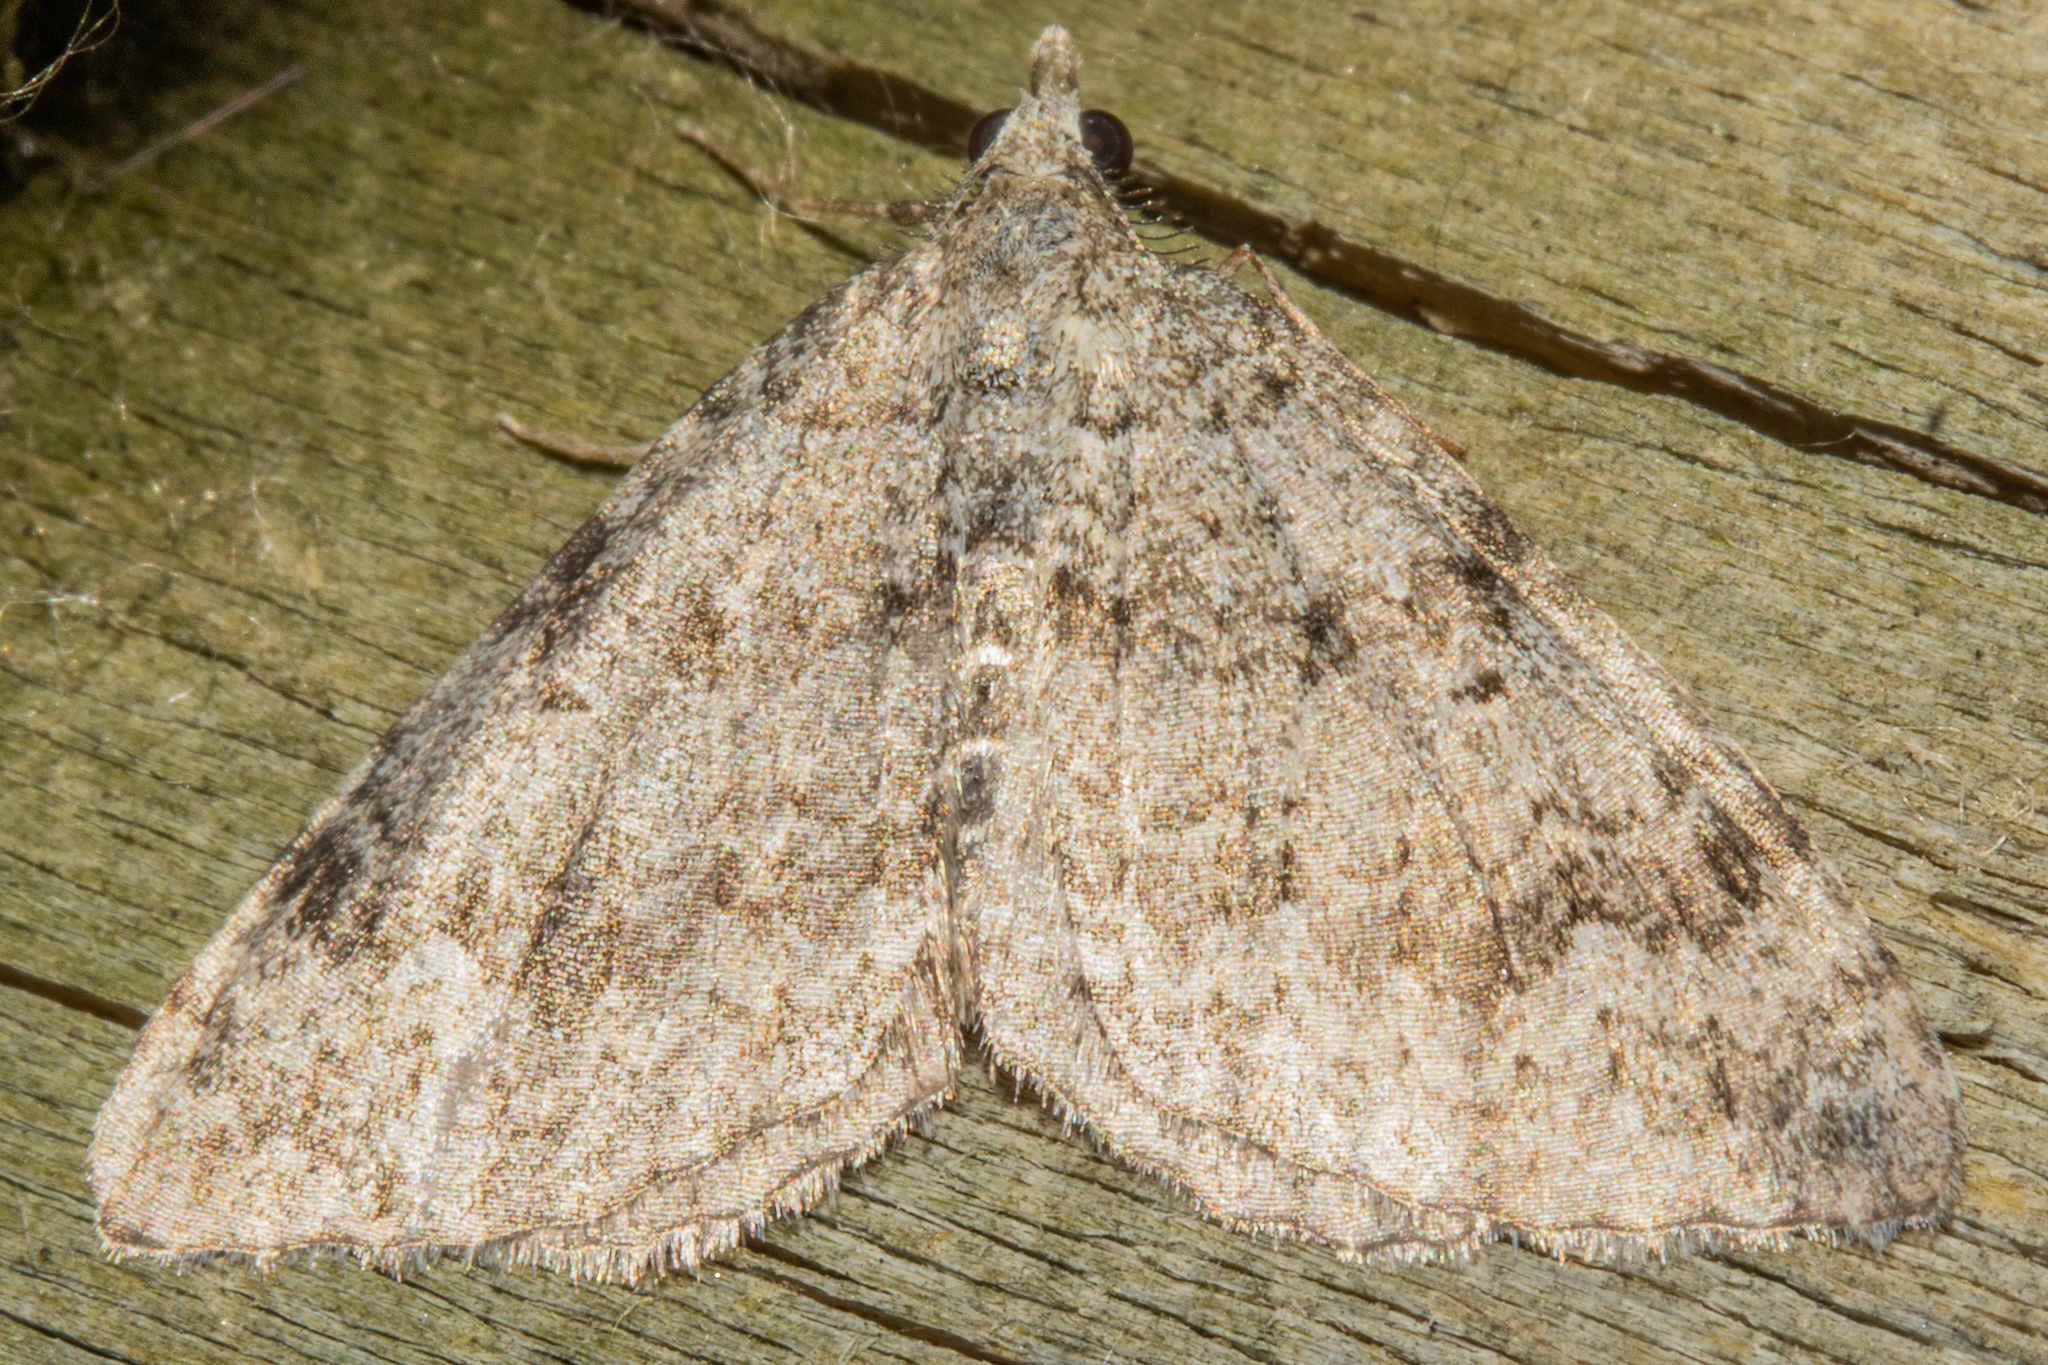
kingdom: Animalia
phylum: Arthropoda
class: Insecta
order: Lepidoptera
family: Geometridae
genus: Helastia
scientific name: Helastia corcularia
